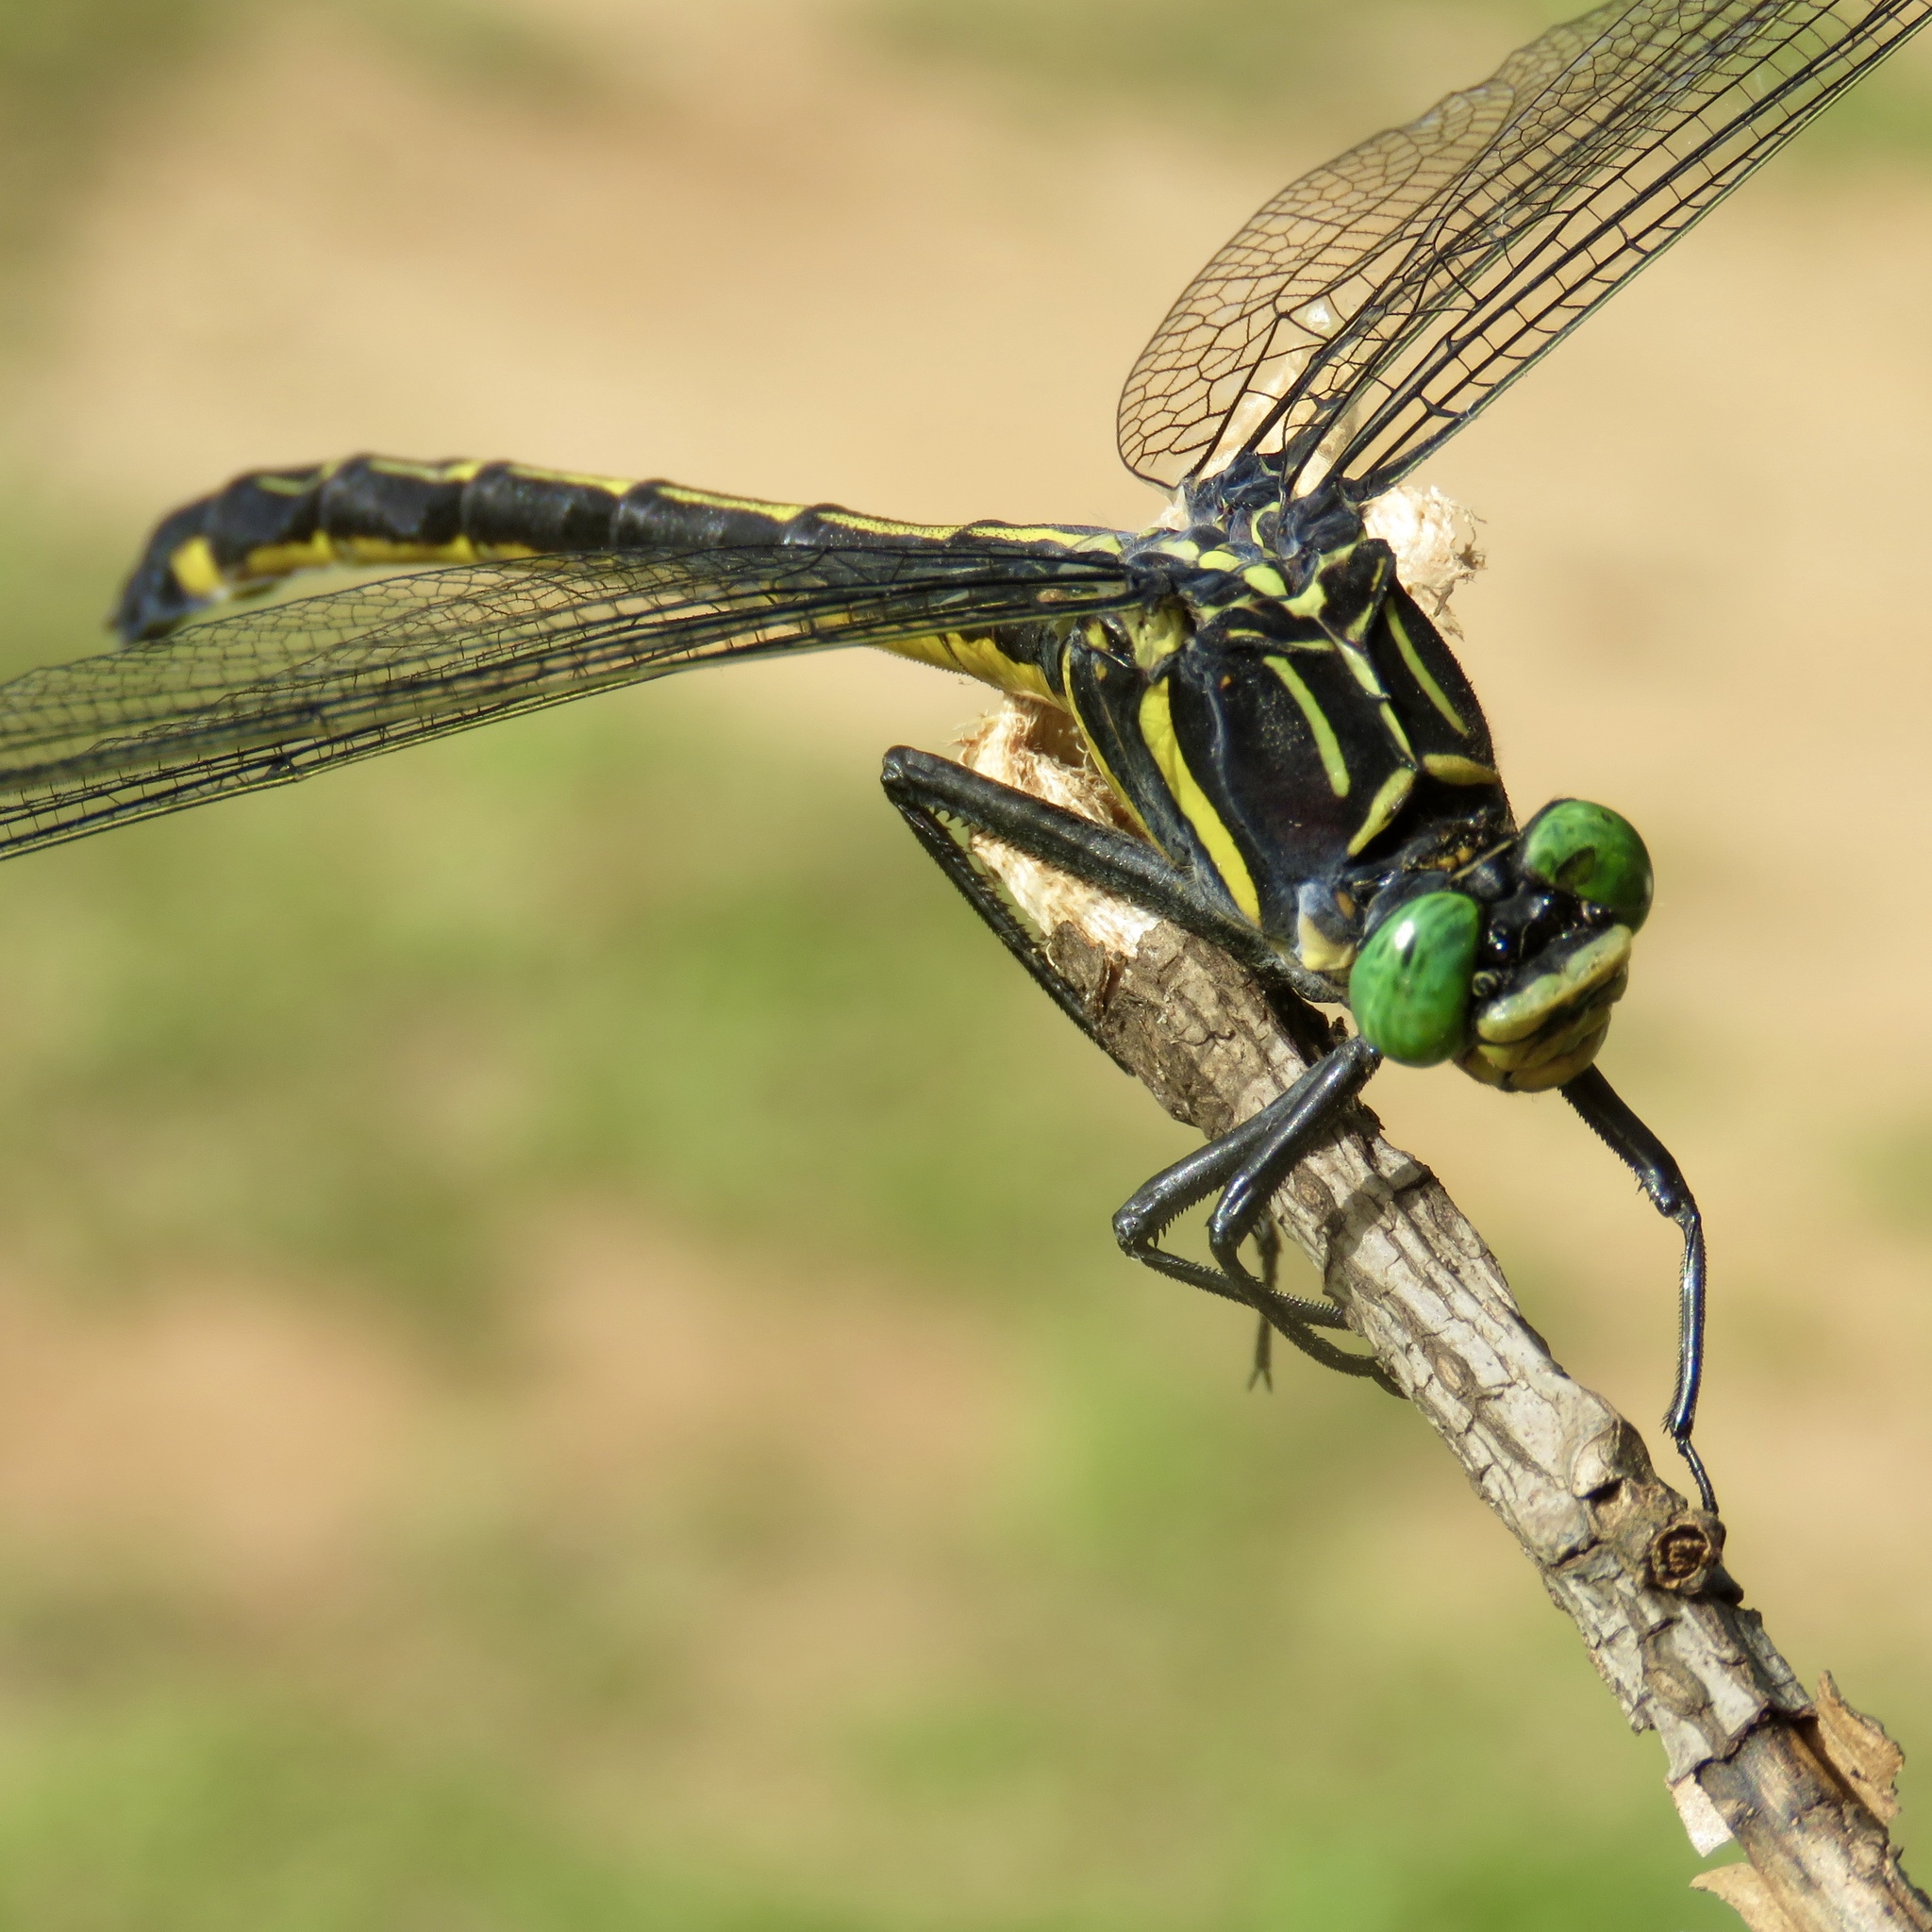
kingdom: Animalia
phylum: Arthropoda
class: Insecta
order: Odonata
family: Gomphidae
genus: Hagenius
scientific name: Hagenius brevistylus
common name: Dragonhunter
